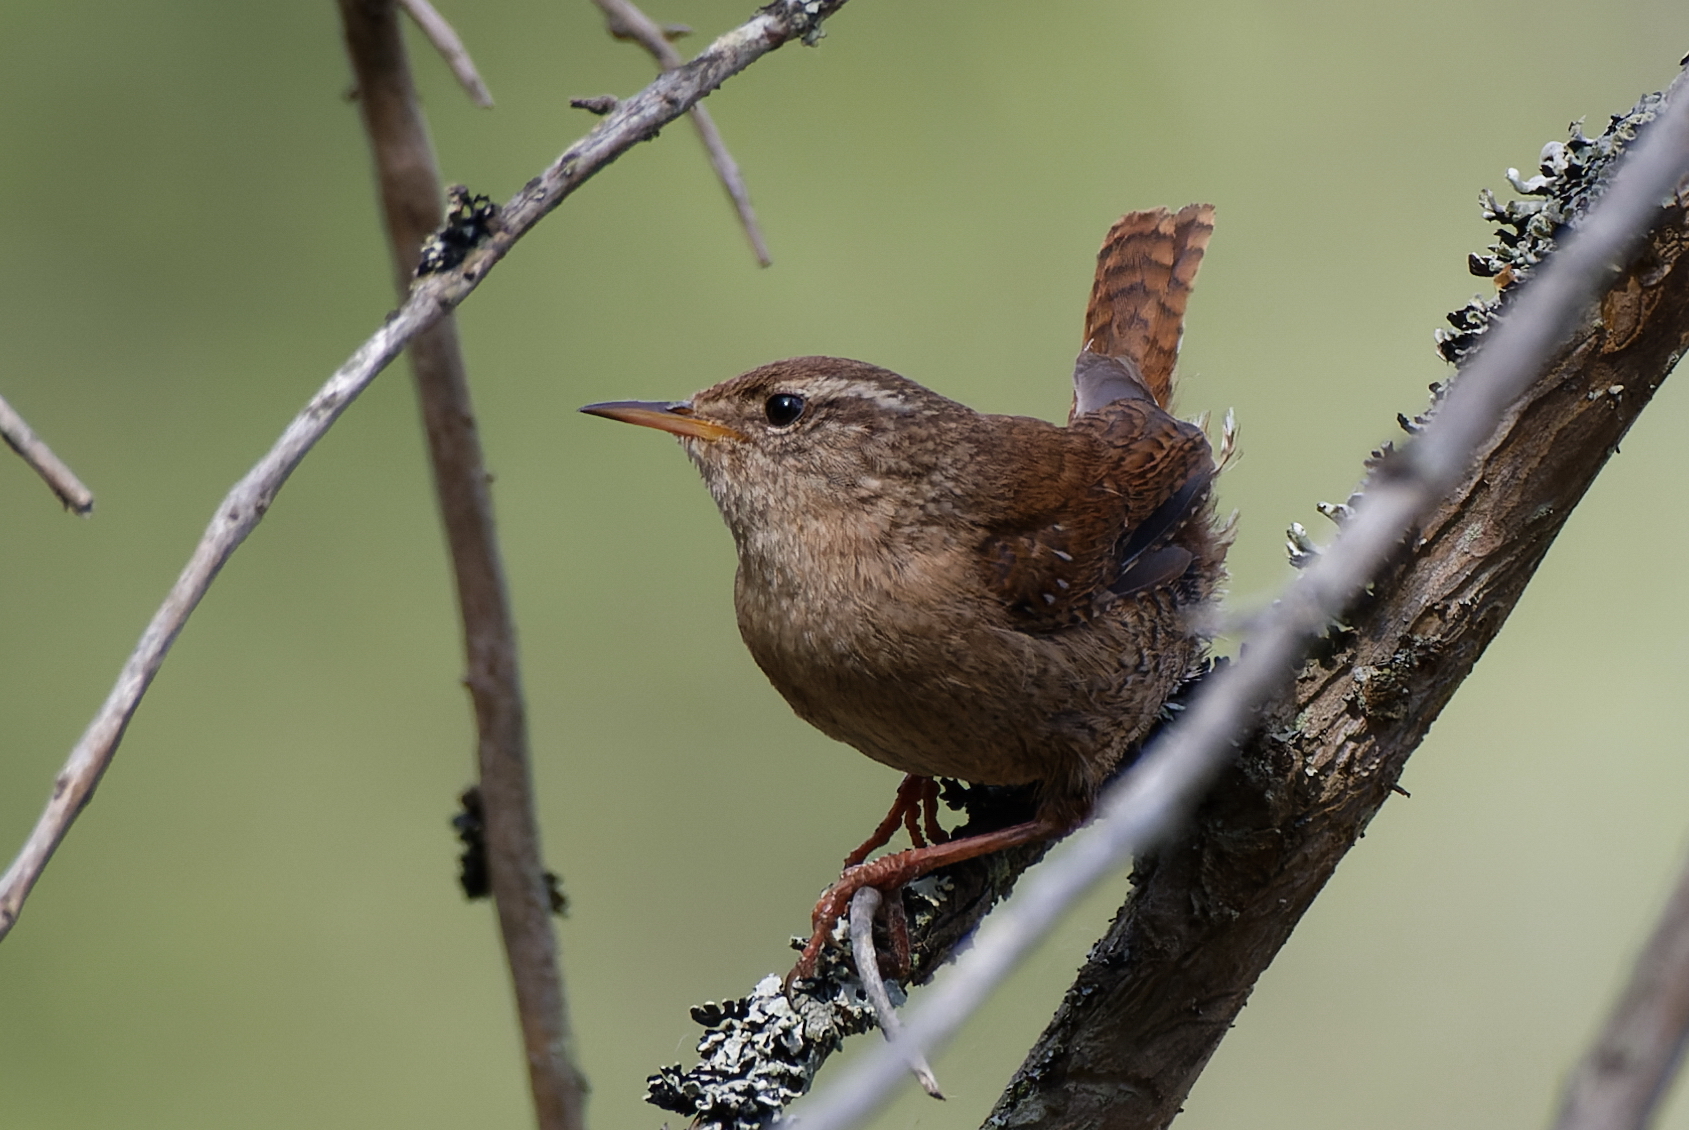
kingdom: Animalia
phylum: Chordata
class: Aves
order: Passeriformes
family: Troglodytidae
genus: Troglodytes
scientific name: Troglodytes troglodytes
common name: Eurasian wren
